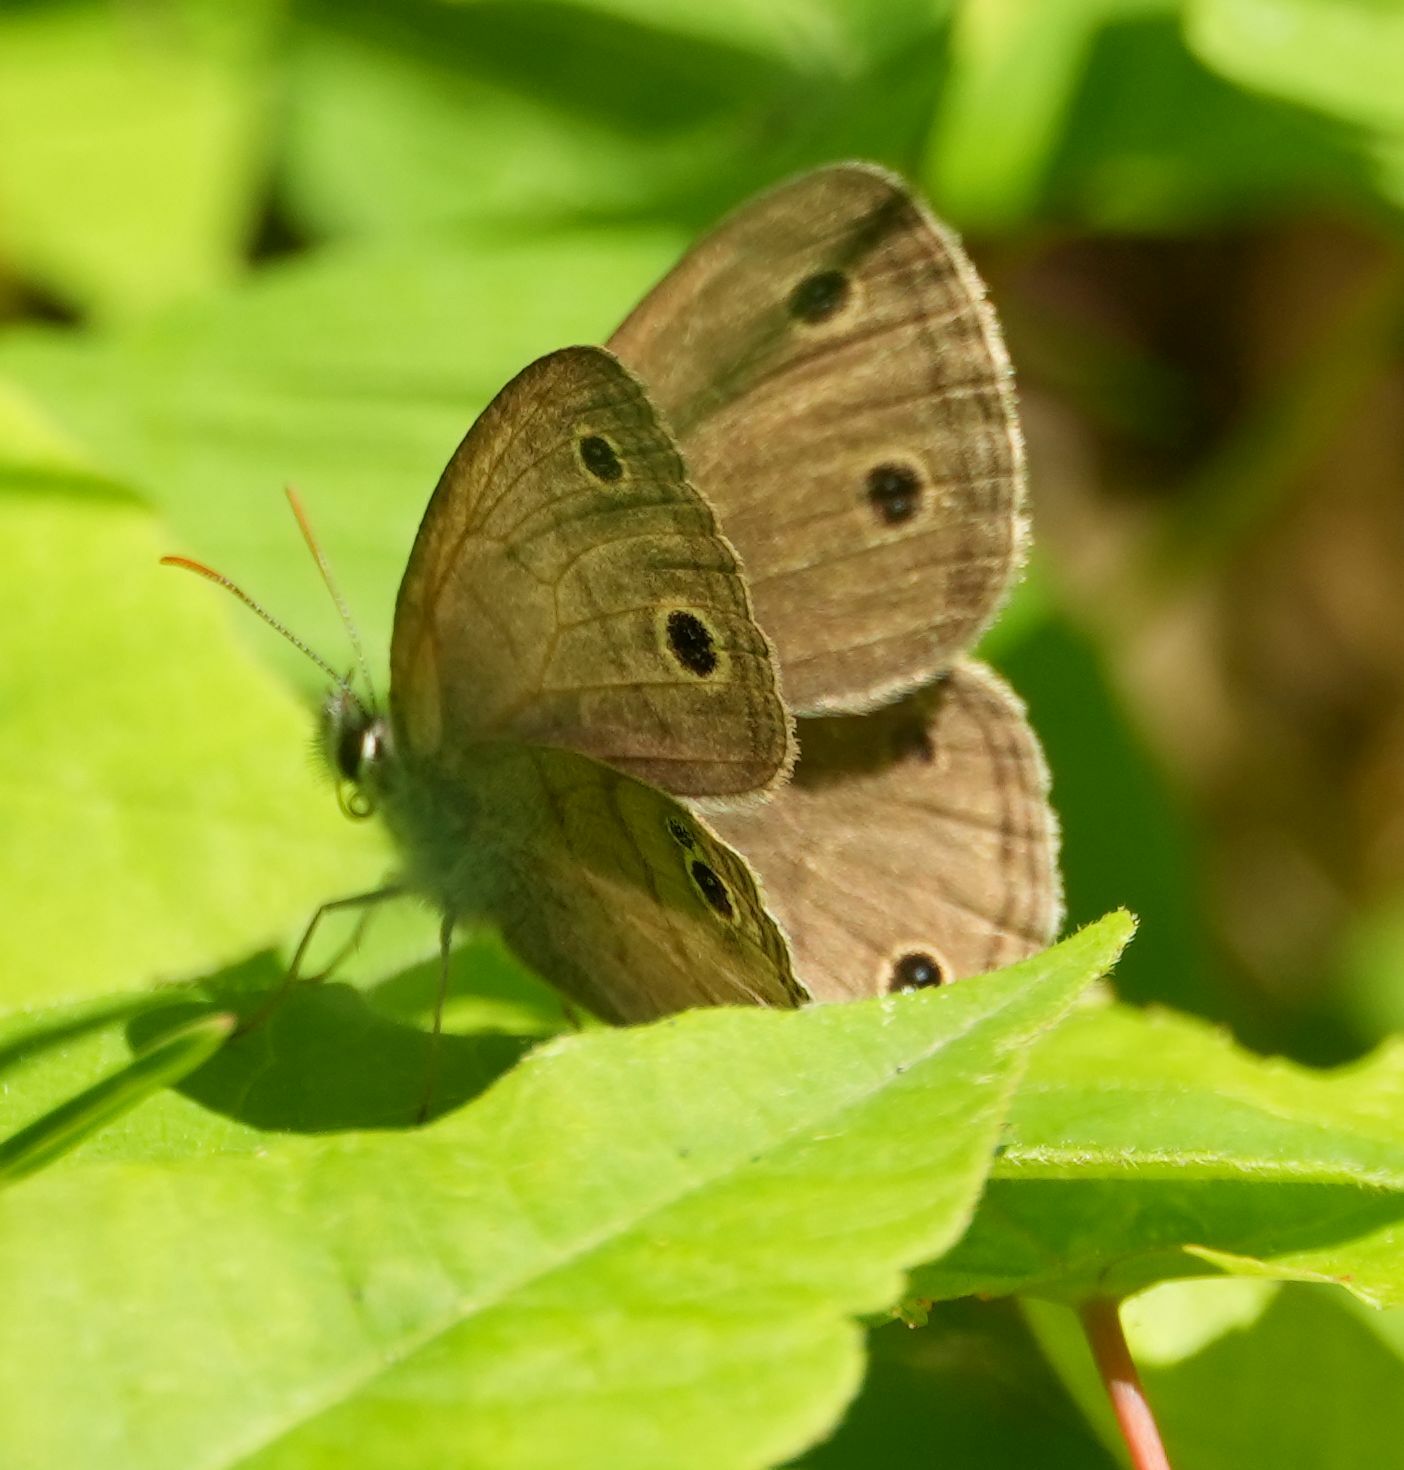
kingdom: Animalia
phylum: Arthropoda
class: Insecta
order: Lepidoptera
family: Nymphalidae
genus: Euptychia
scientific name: Euptychia cymela
